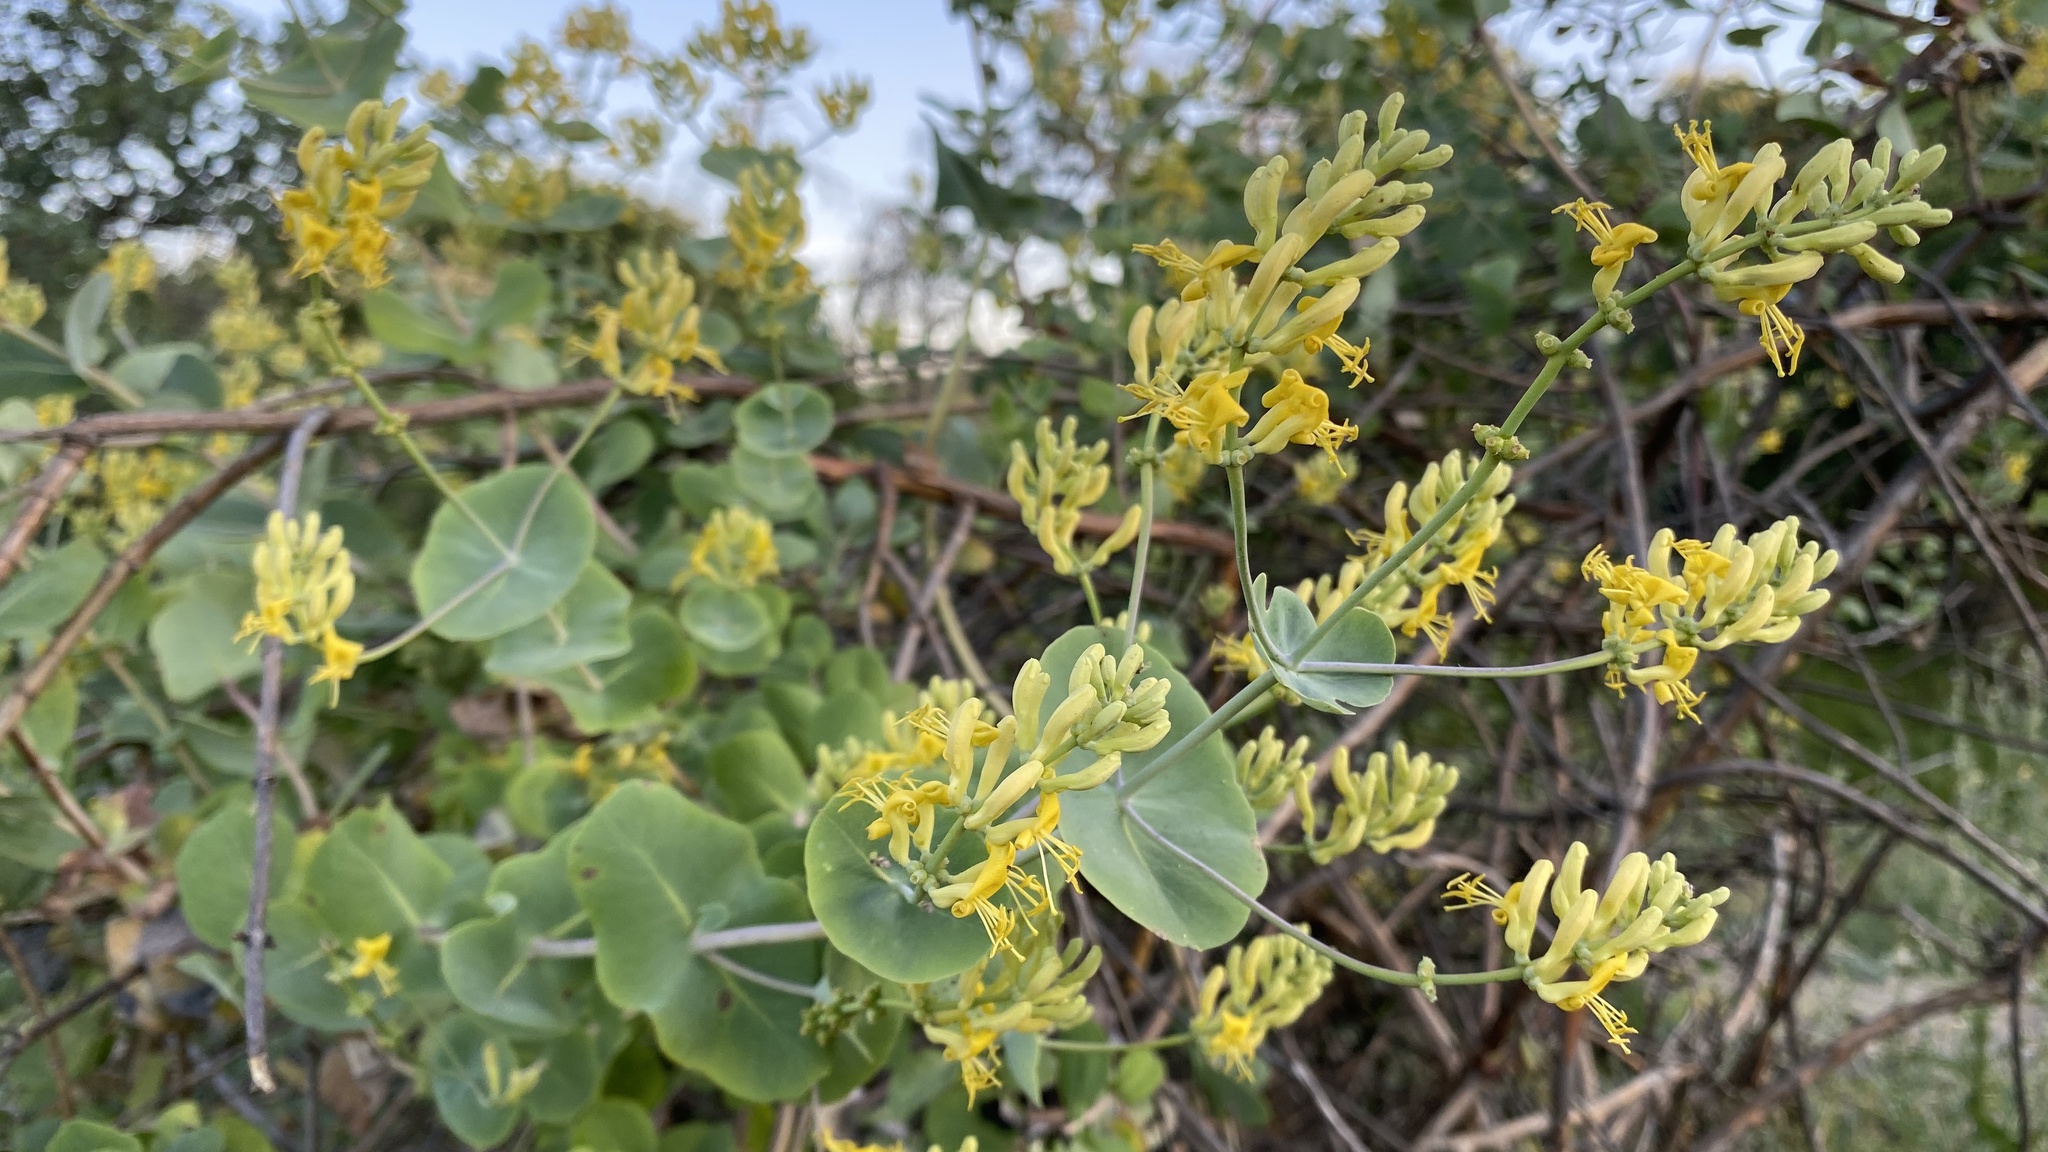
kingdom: Plantae
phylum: Tracheophyta
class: Magnoliopsida
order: Dipsacales
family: Caprifoliaceae
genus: Lonicera
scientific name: Lonicera interrupta
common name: Chaparral honeysuckle
